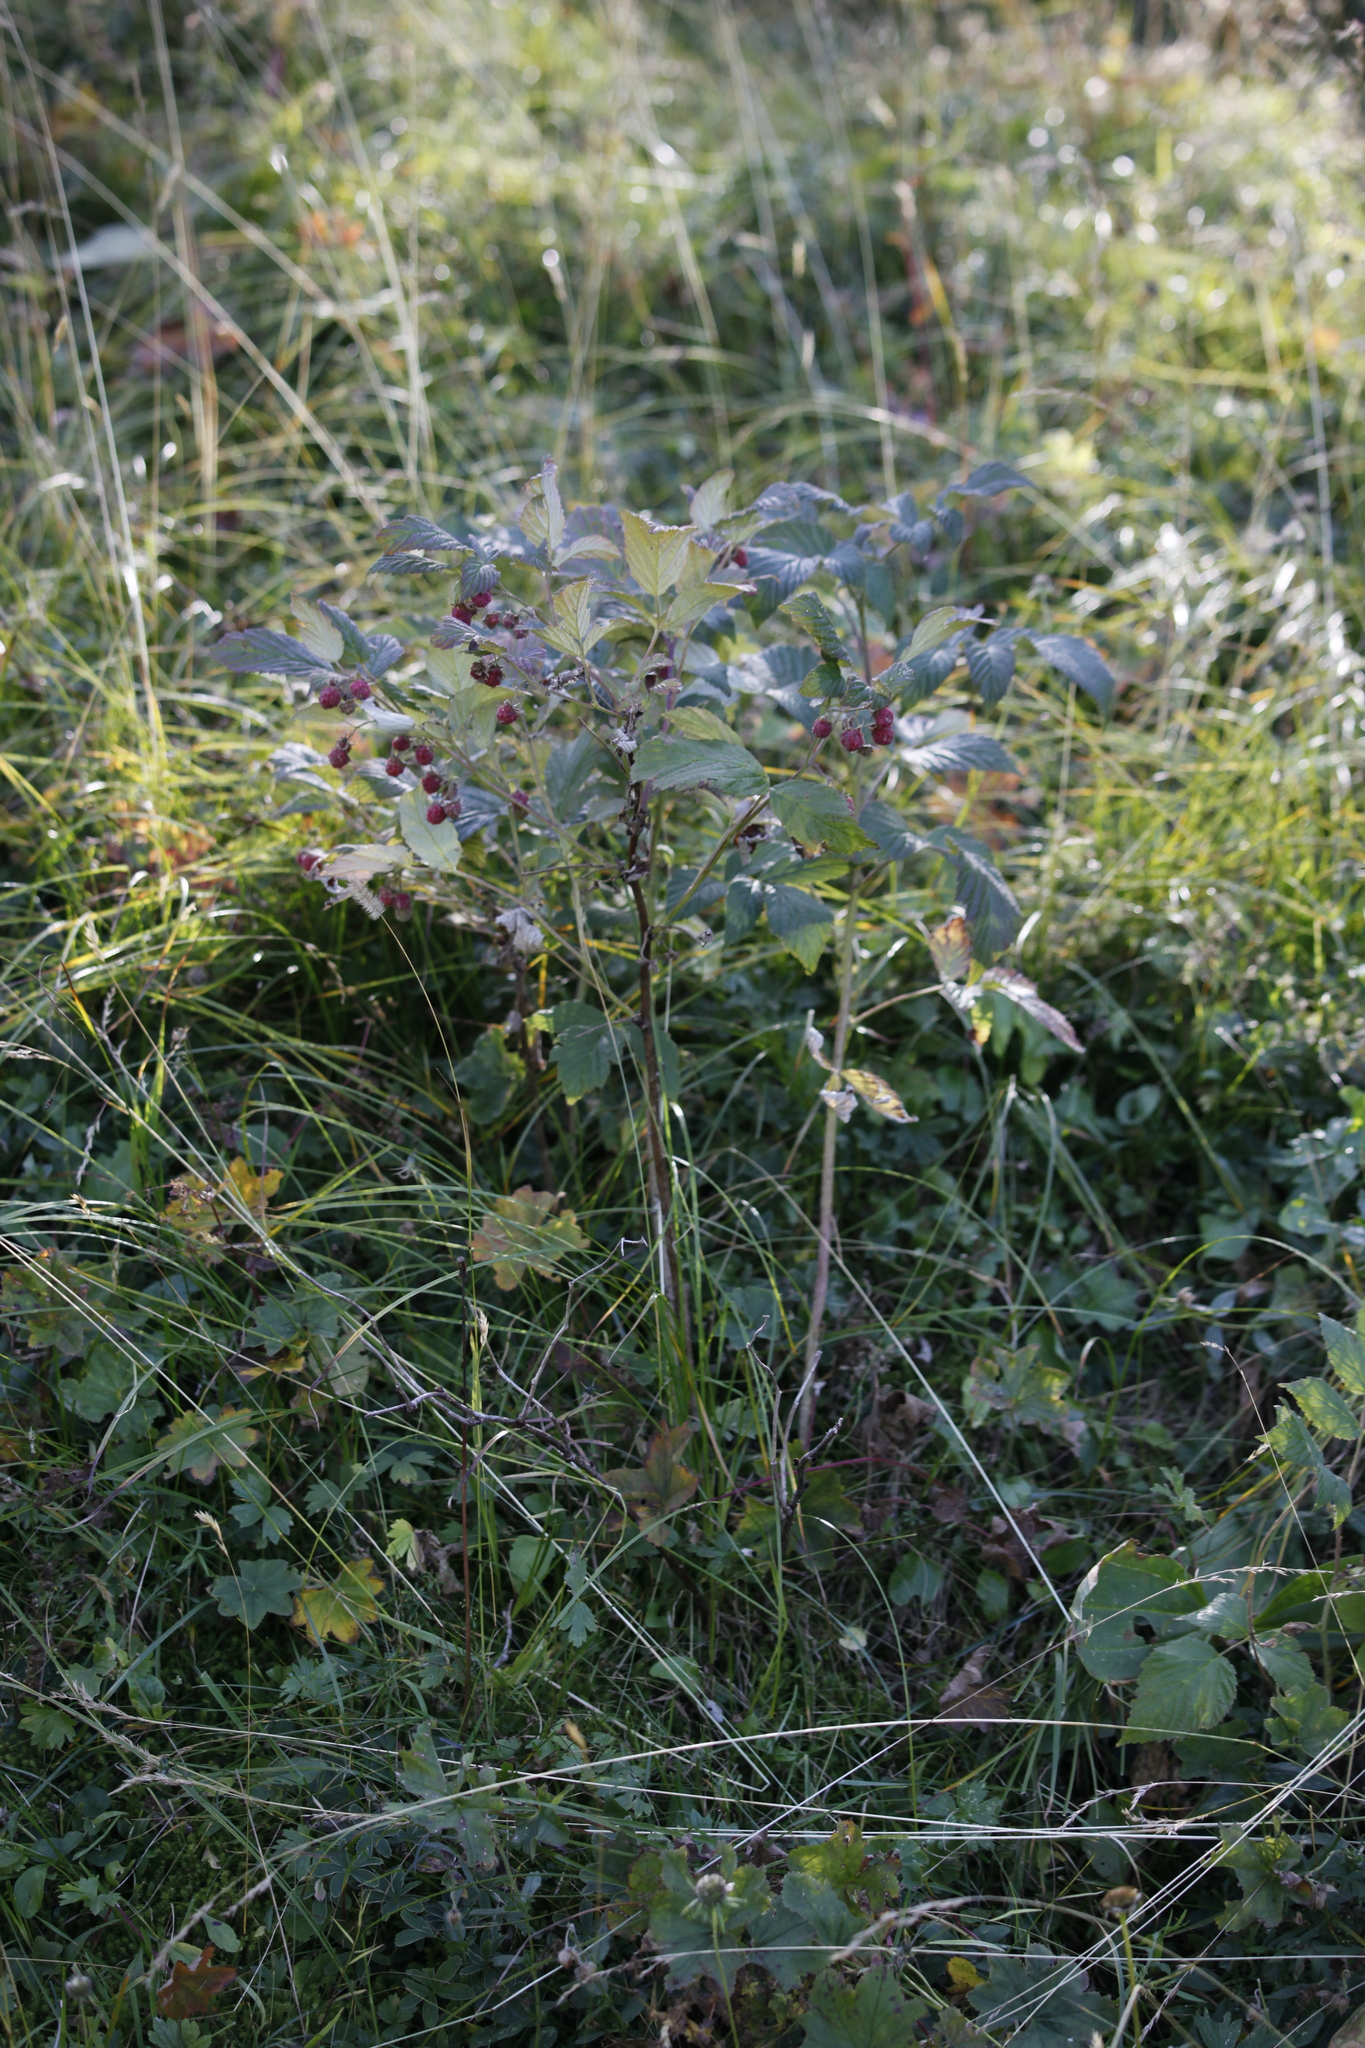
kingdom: Plantae
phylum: Tracheophyta
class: Magnoliopsida
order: Rosales
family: Rosaceae
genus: Rubus
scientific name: Rubus idaeus
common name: Raspberry
